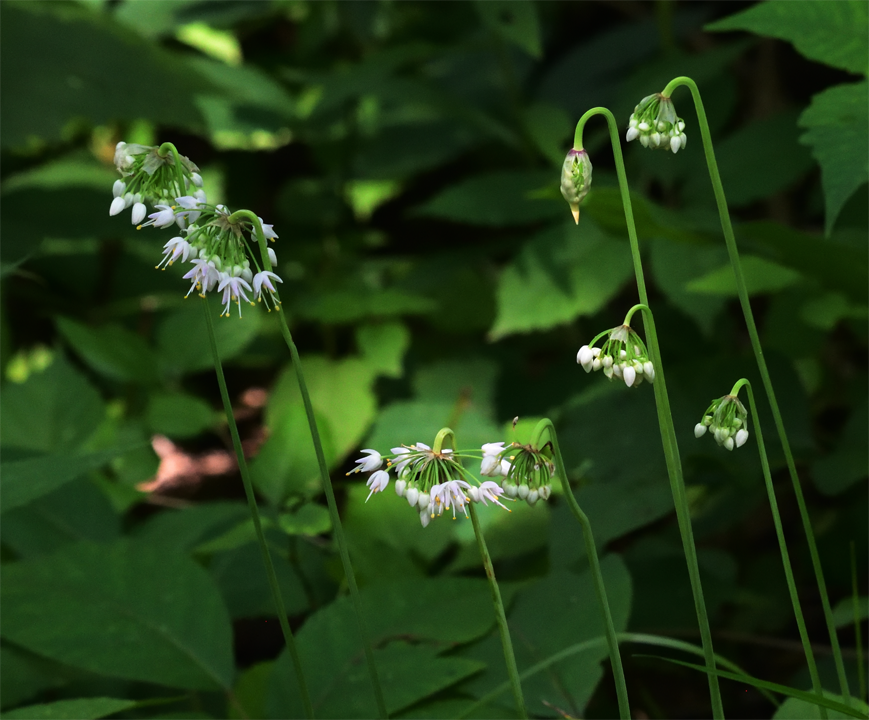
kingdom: Plantae
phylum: Tracheophyta
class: Liliopsida
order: Asparagales
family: Amaryllidaceae
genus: Allium
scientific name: Allium cernuum
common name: Nodding onion
